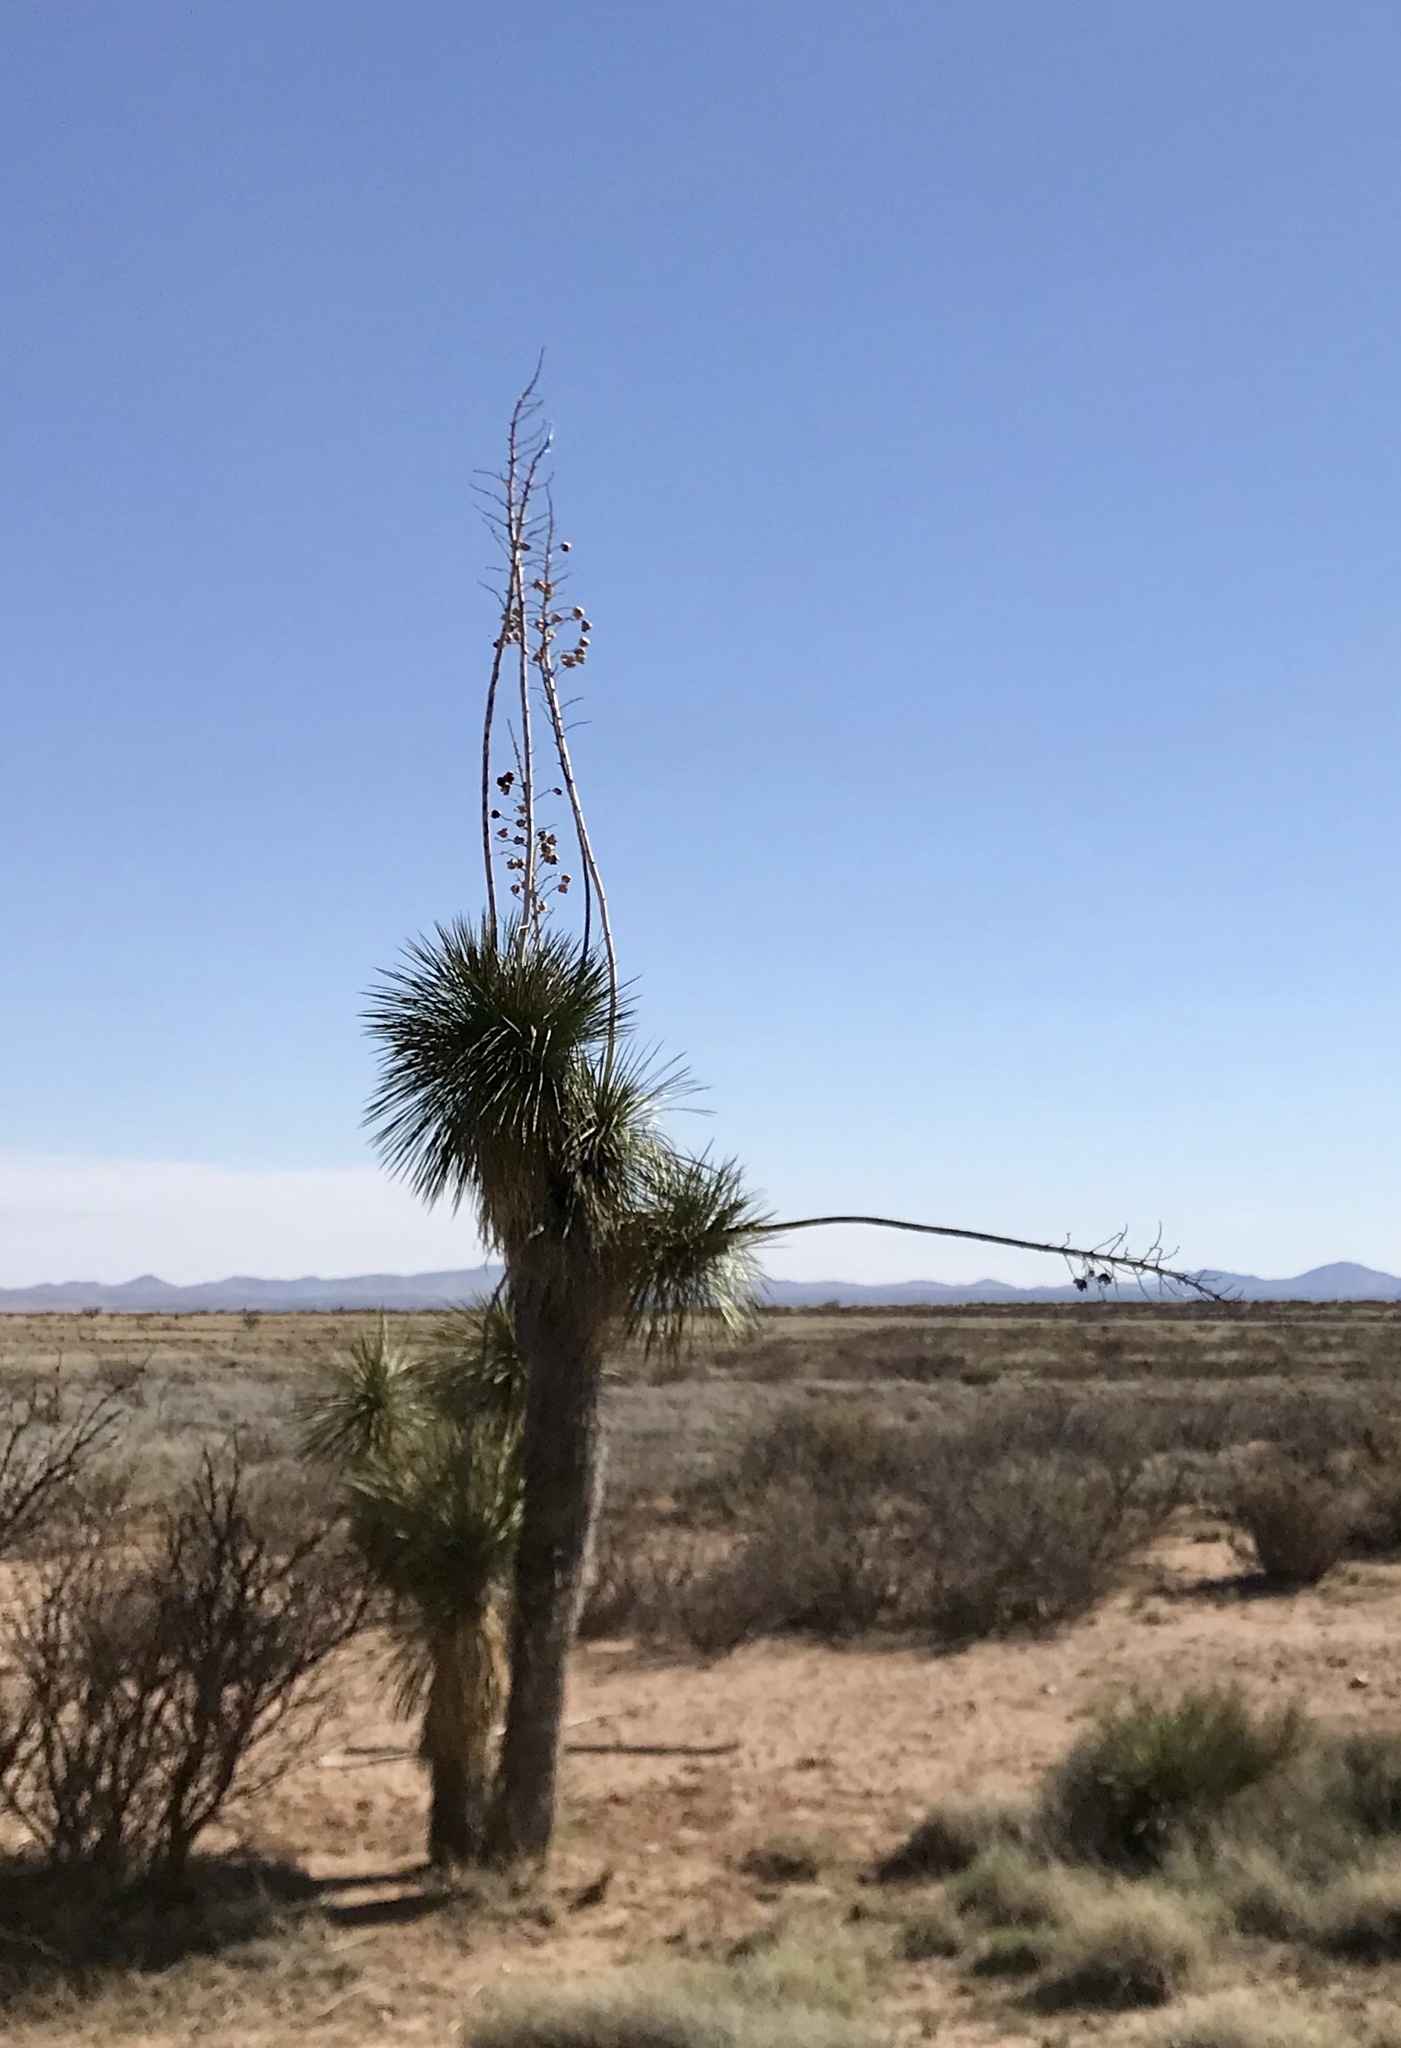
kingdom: Plantae
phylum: Tracheophyta
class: Liliopsida
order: Asparagales
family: Asparagaceae
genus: Yucca
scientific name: Yucca elata
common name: Palmella
